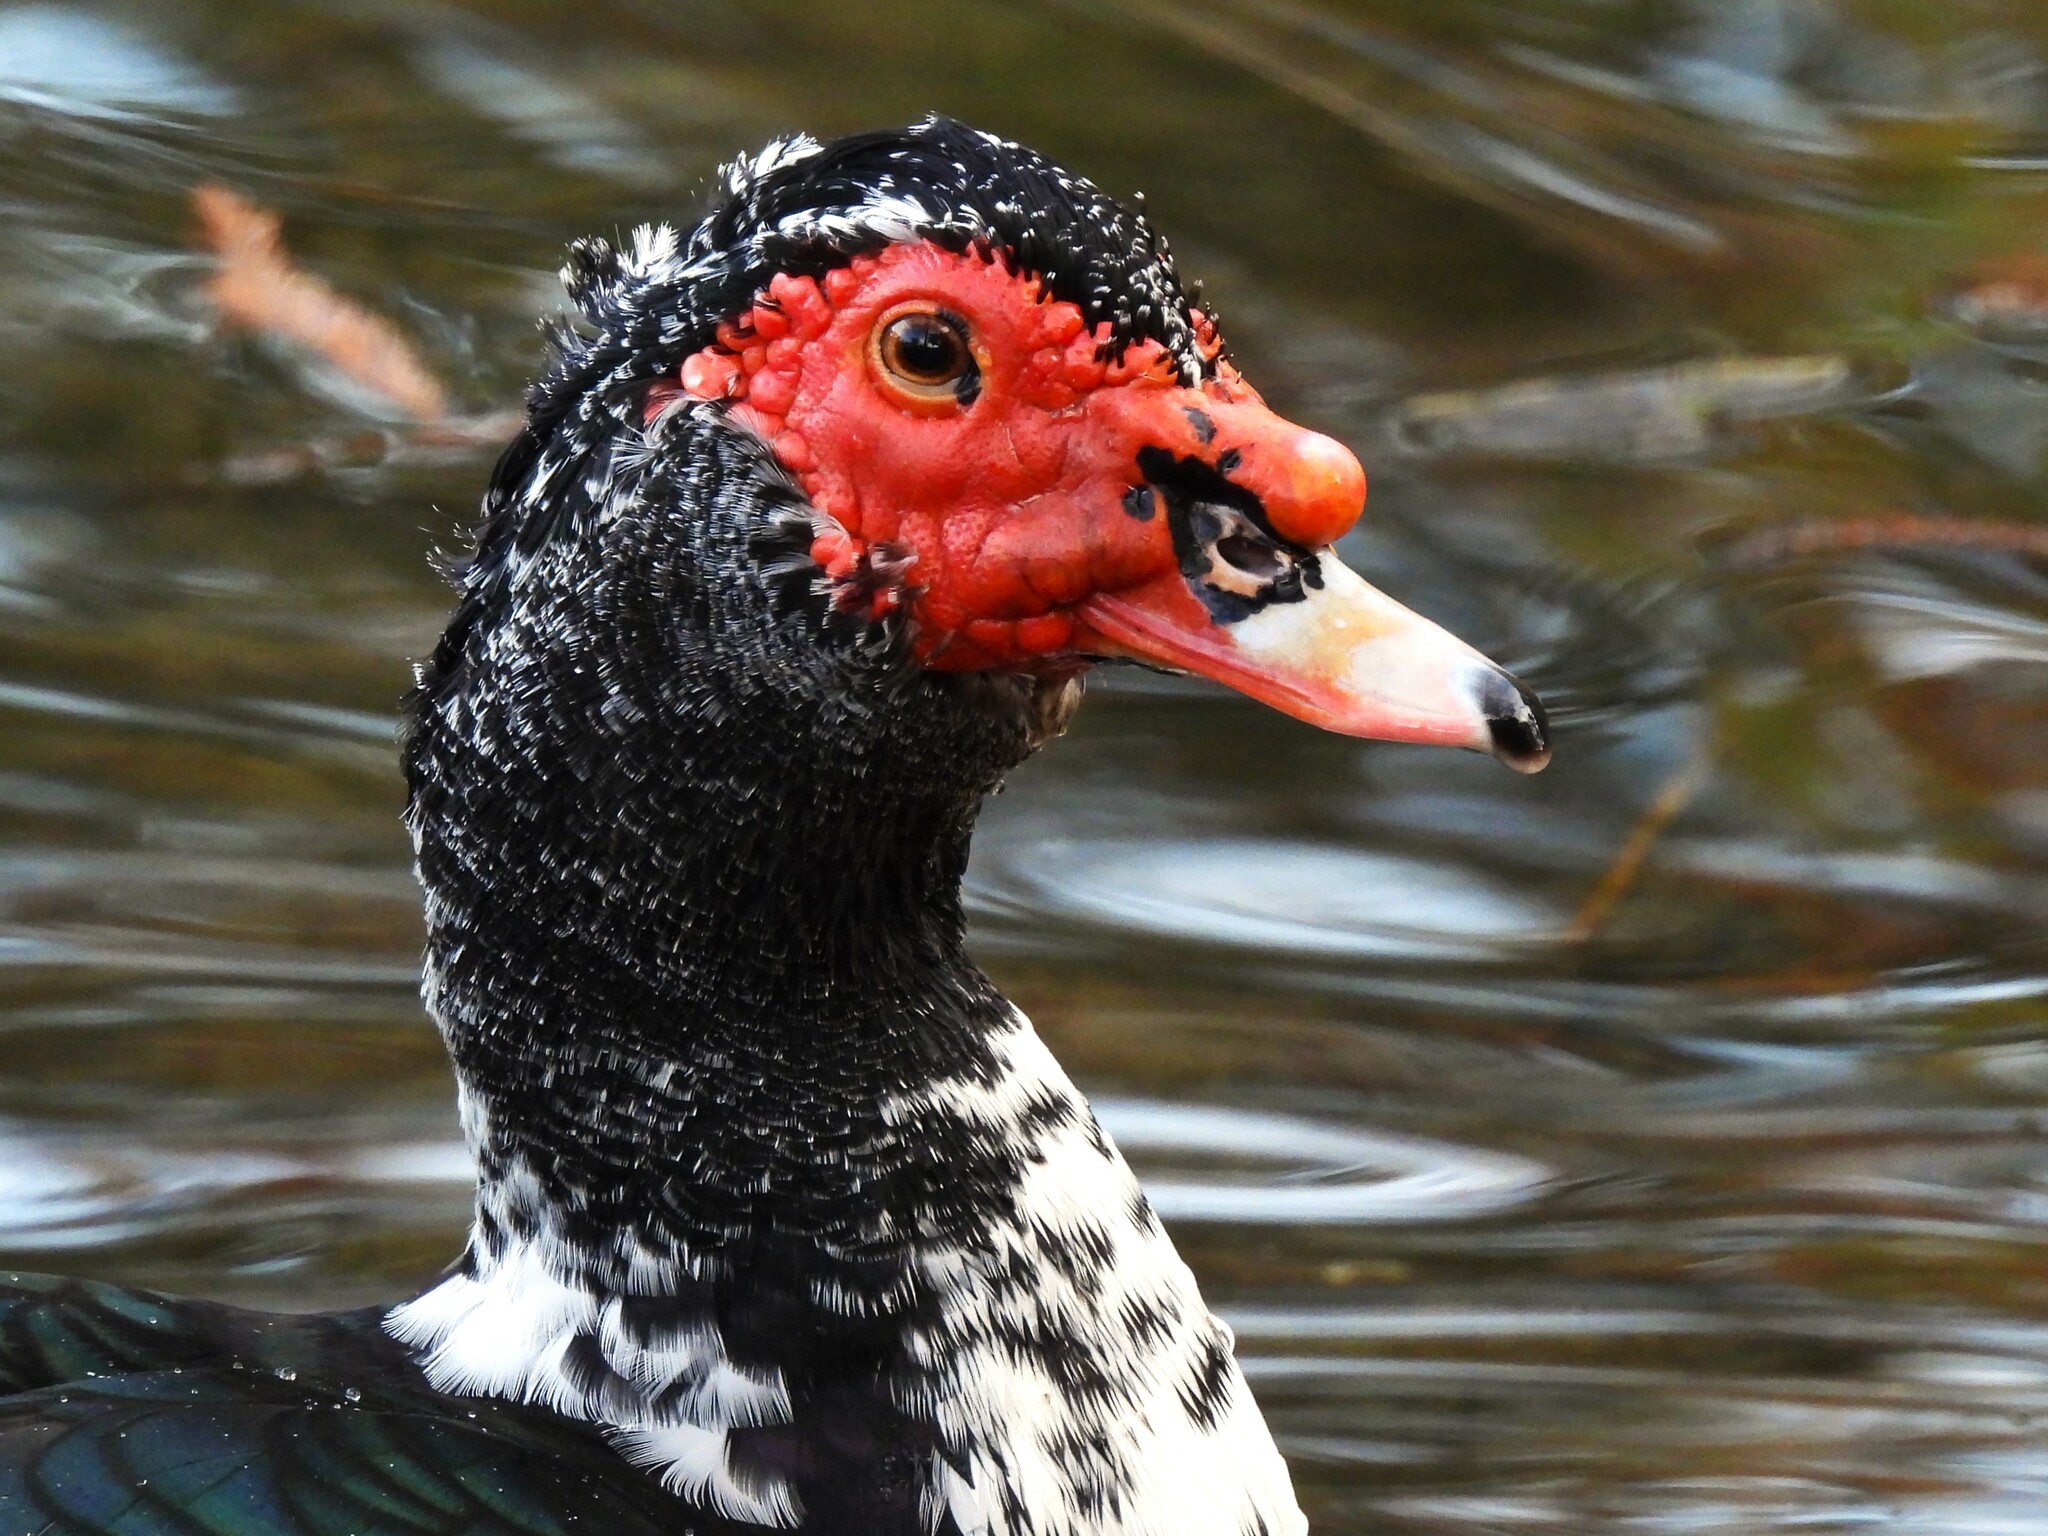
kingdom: Animalia
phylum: Chordata
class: Aves
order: Anseriformes
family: Anatidae
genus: Cairina
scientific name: Cairina moschata
